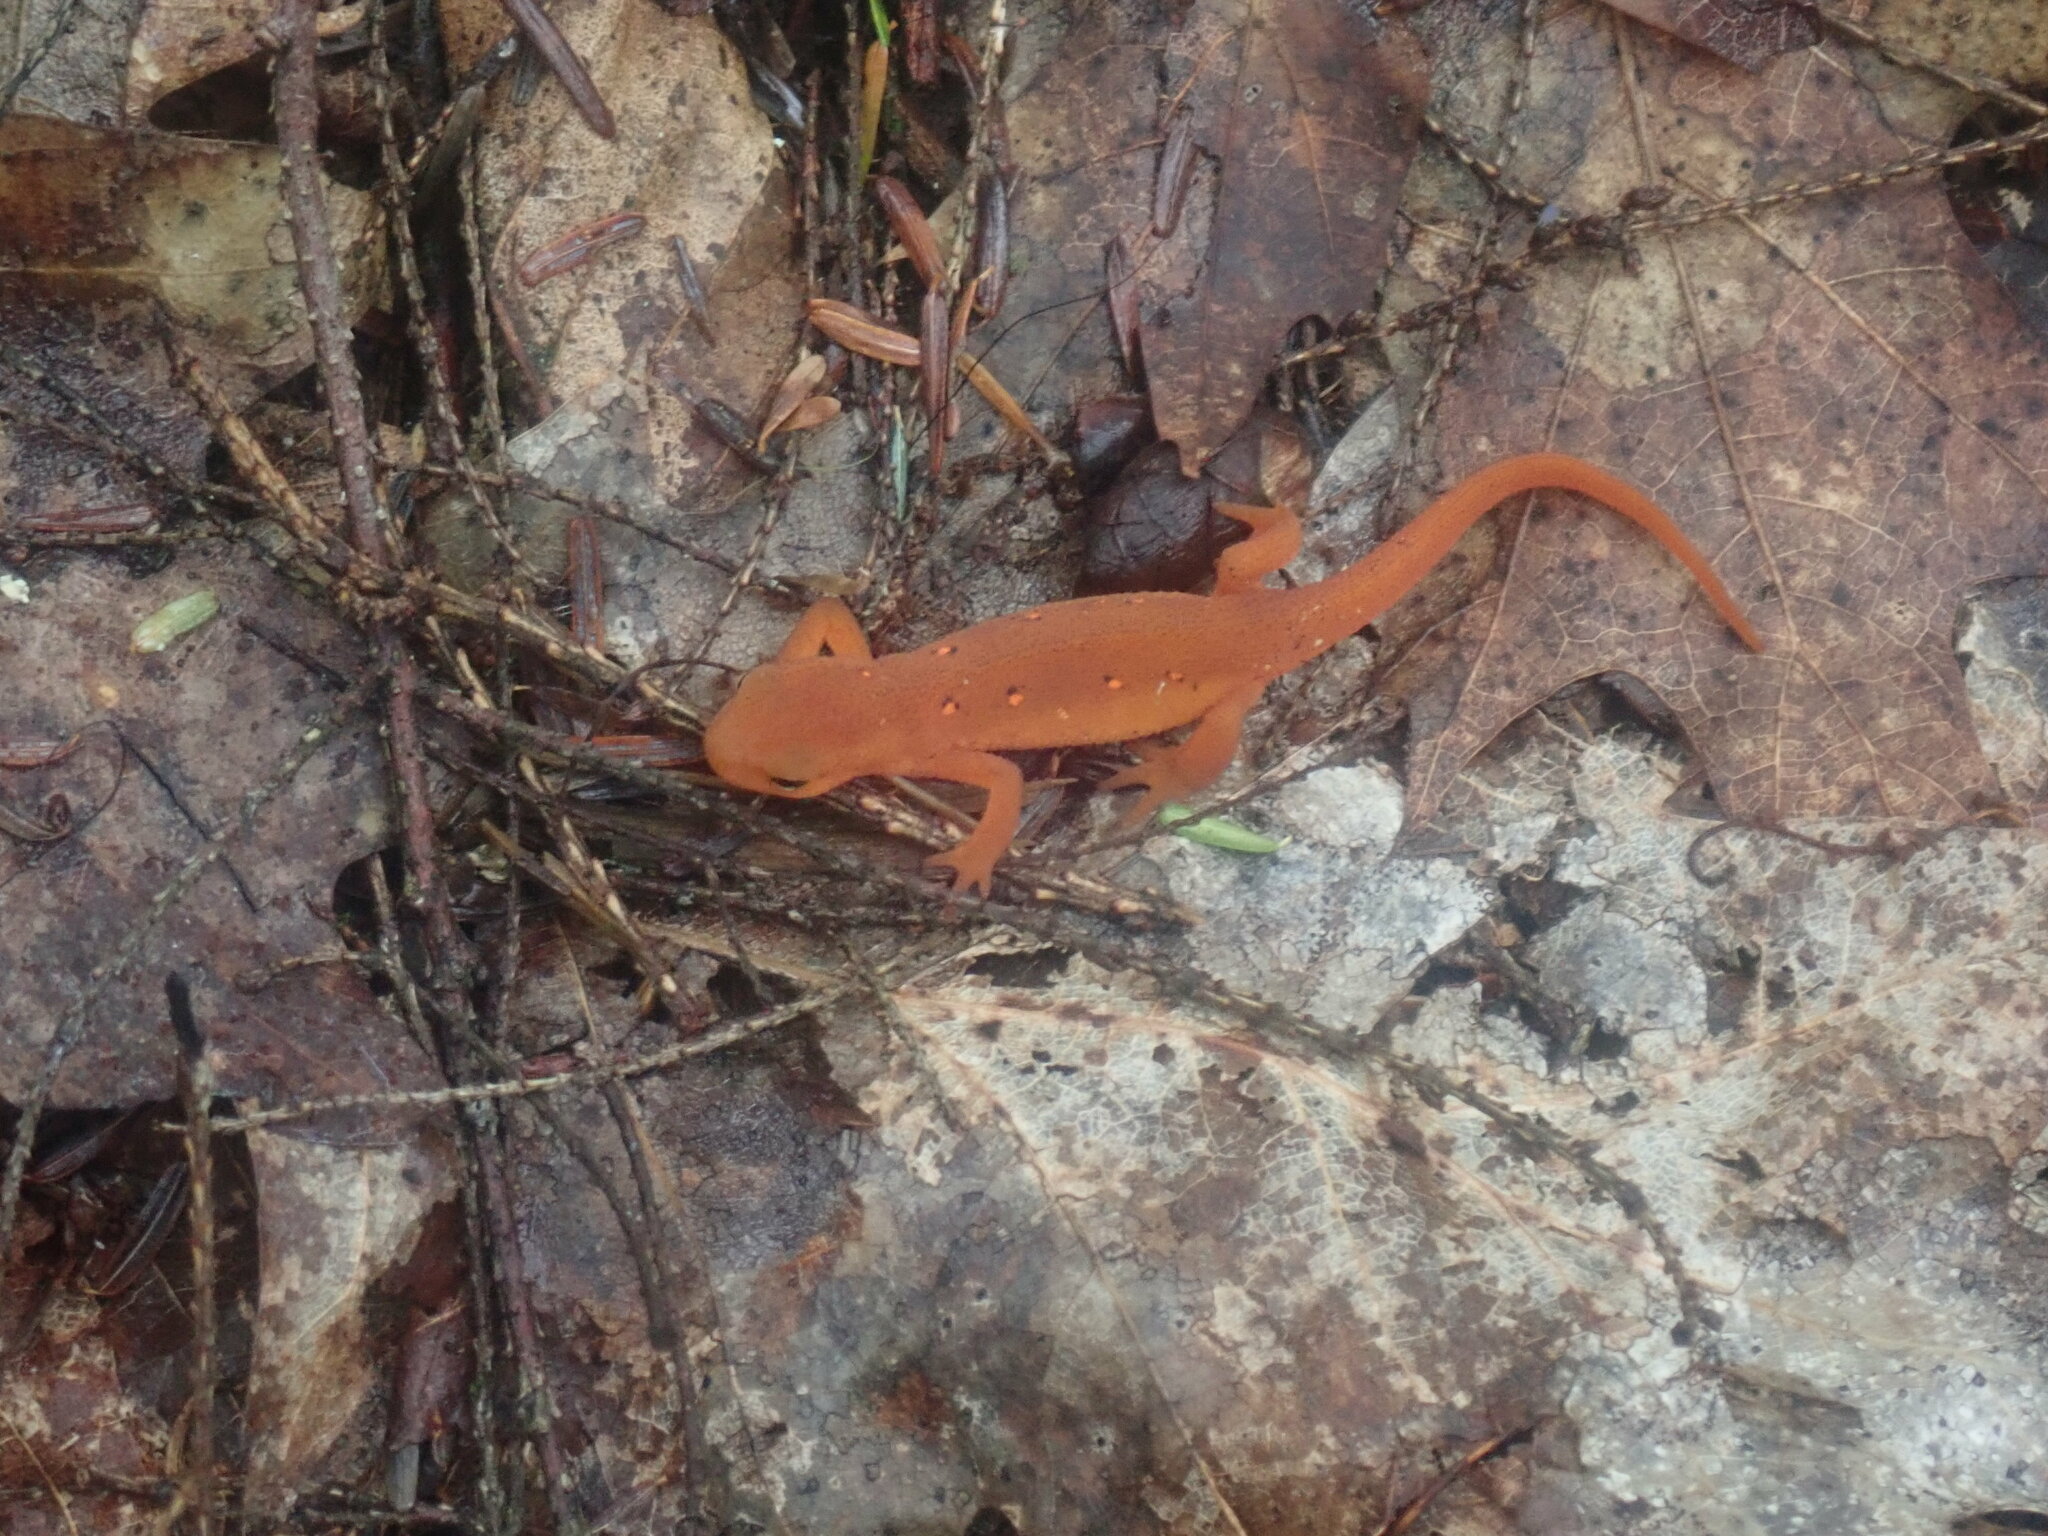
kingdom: Animalia
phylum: Chordata
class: Amphibia
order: Caudata
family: Salamandridae
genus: Notophthalmus
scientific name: Notophthalmus viridescens
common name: Eastern newt
